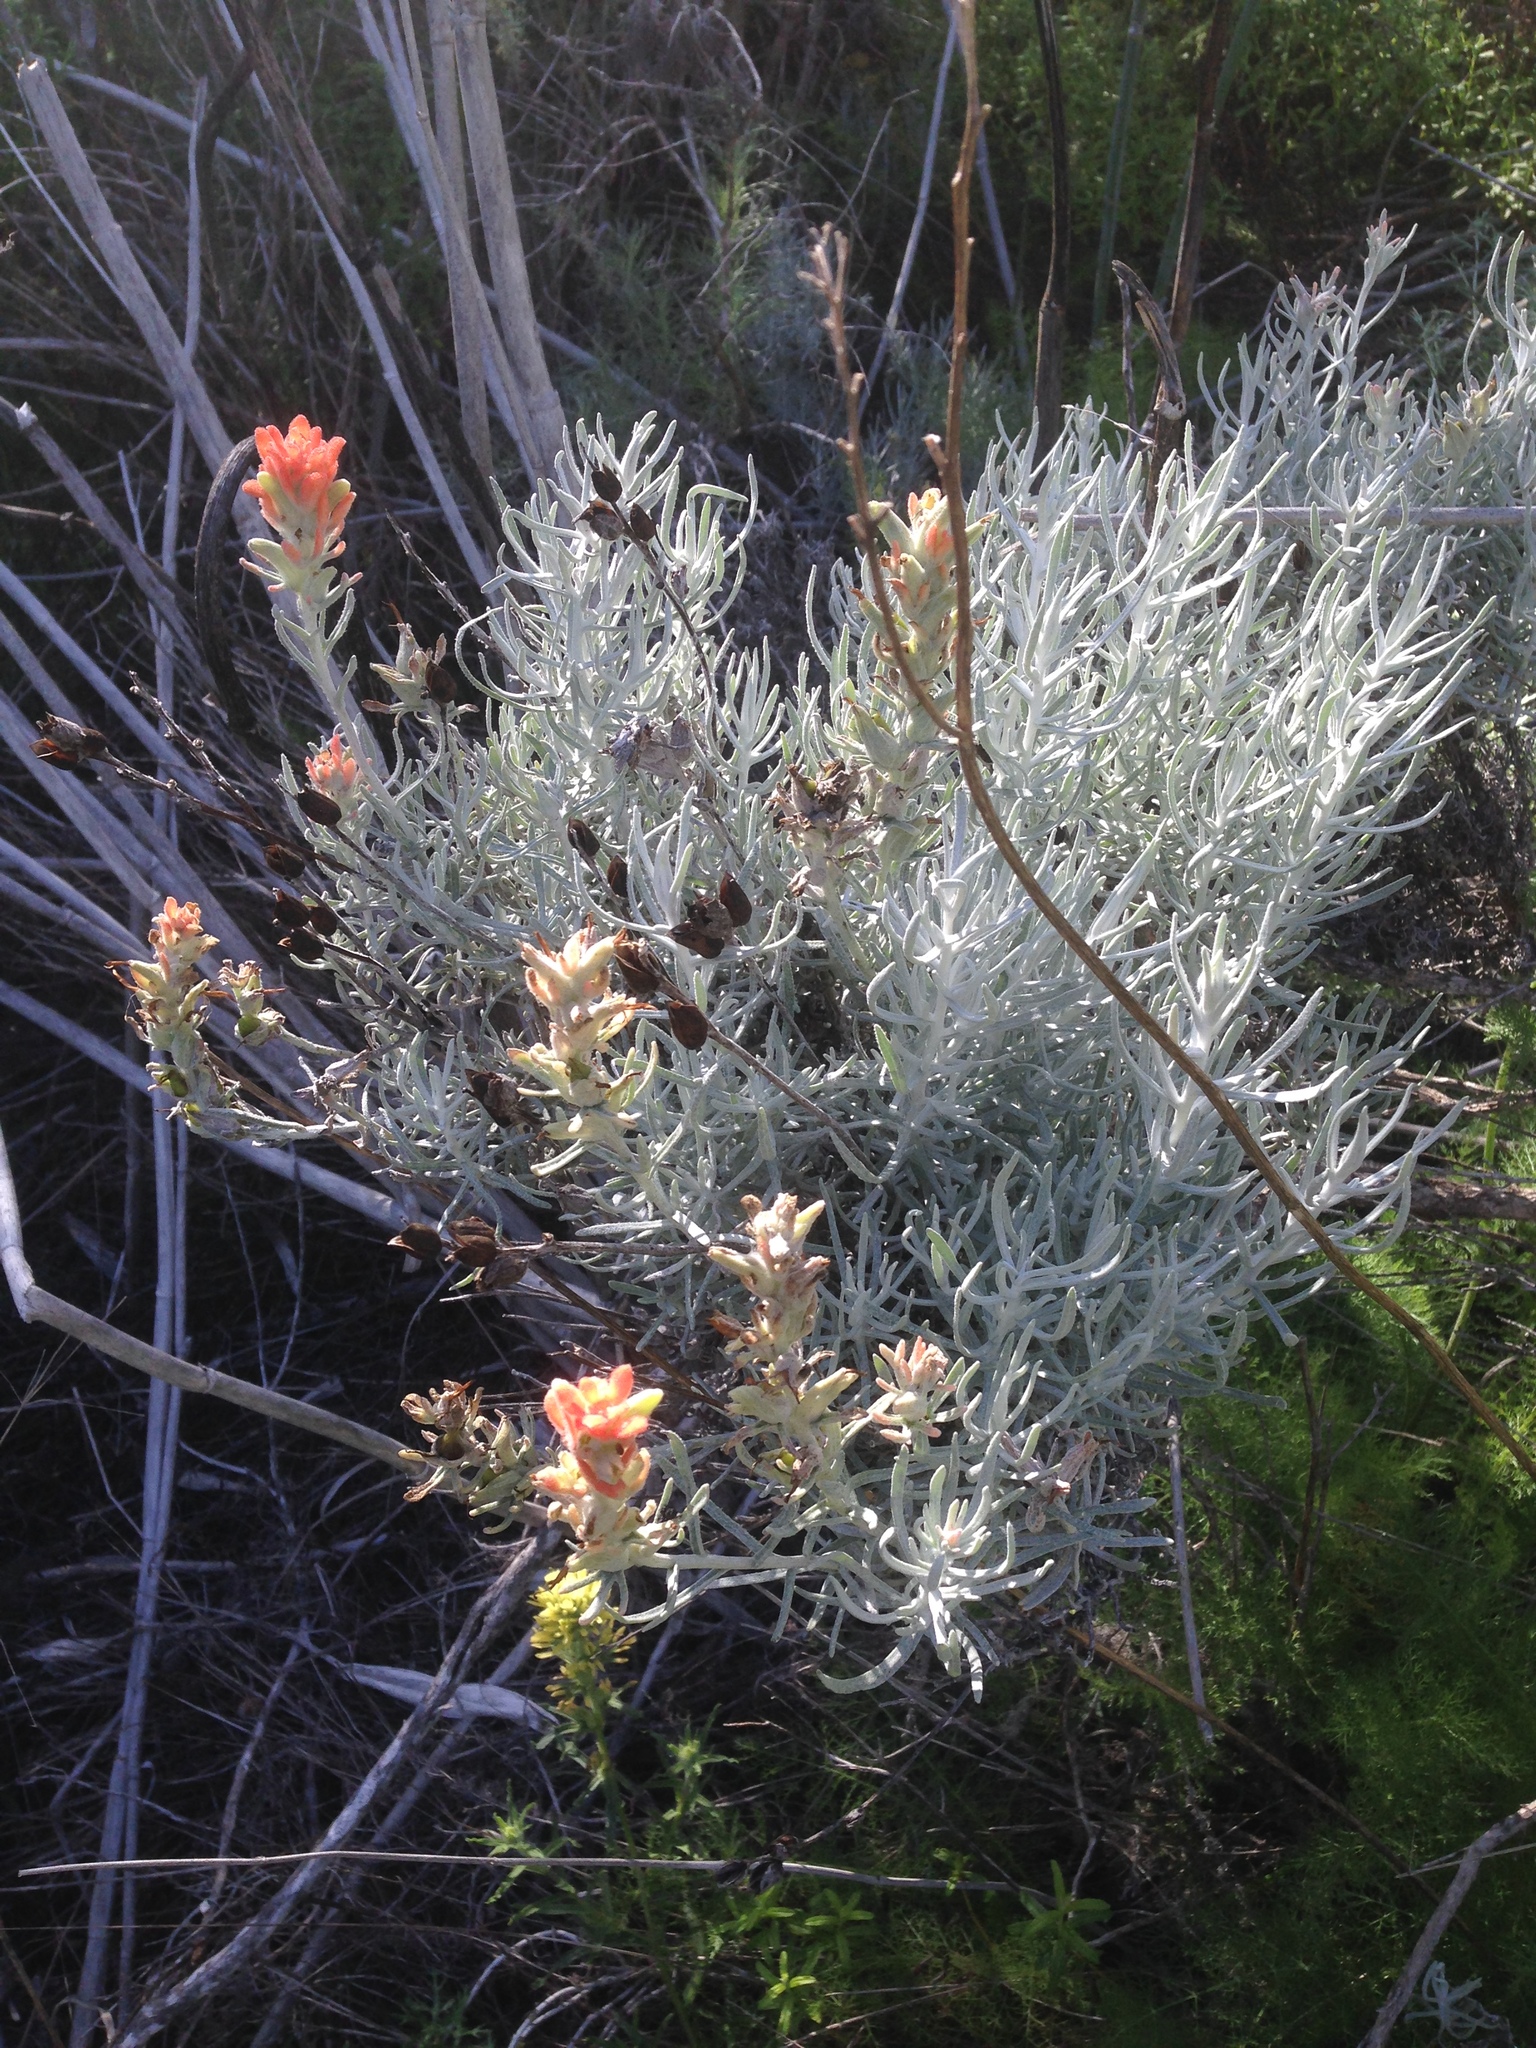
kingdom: Plantae
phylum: Tracheophyta
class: Magnoliopsida
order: Lamiales
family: Orobanchaceae
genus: Castilleja
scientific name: Castilleja hololeuca
